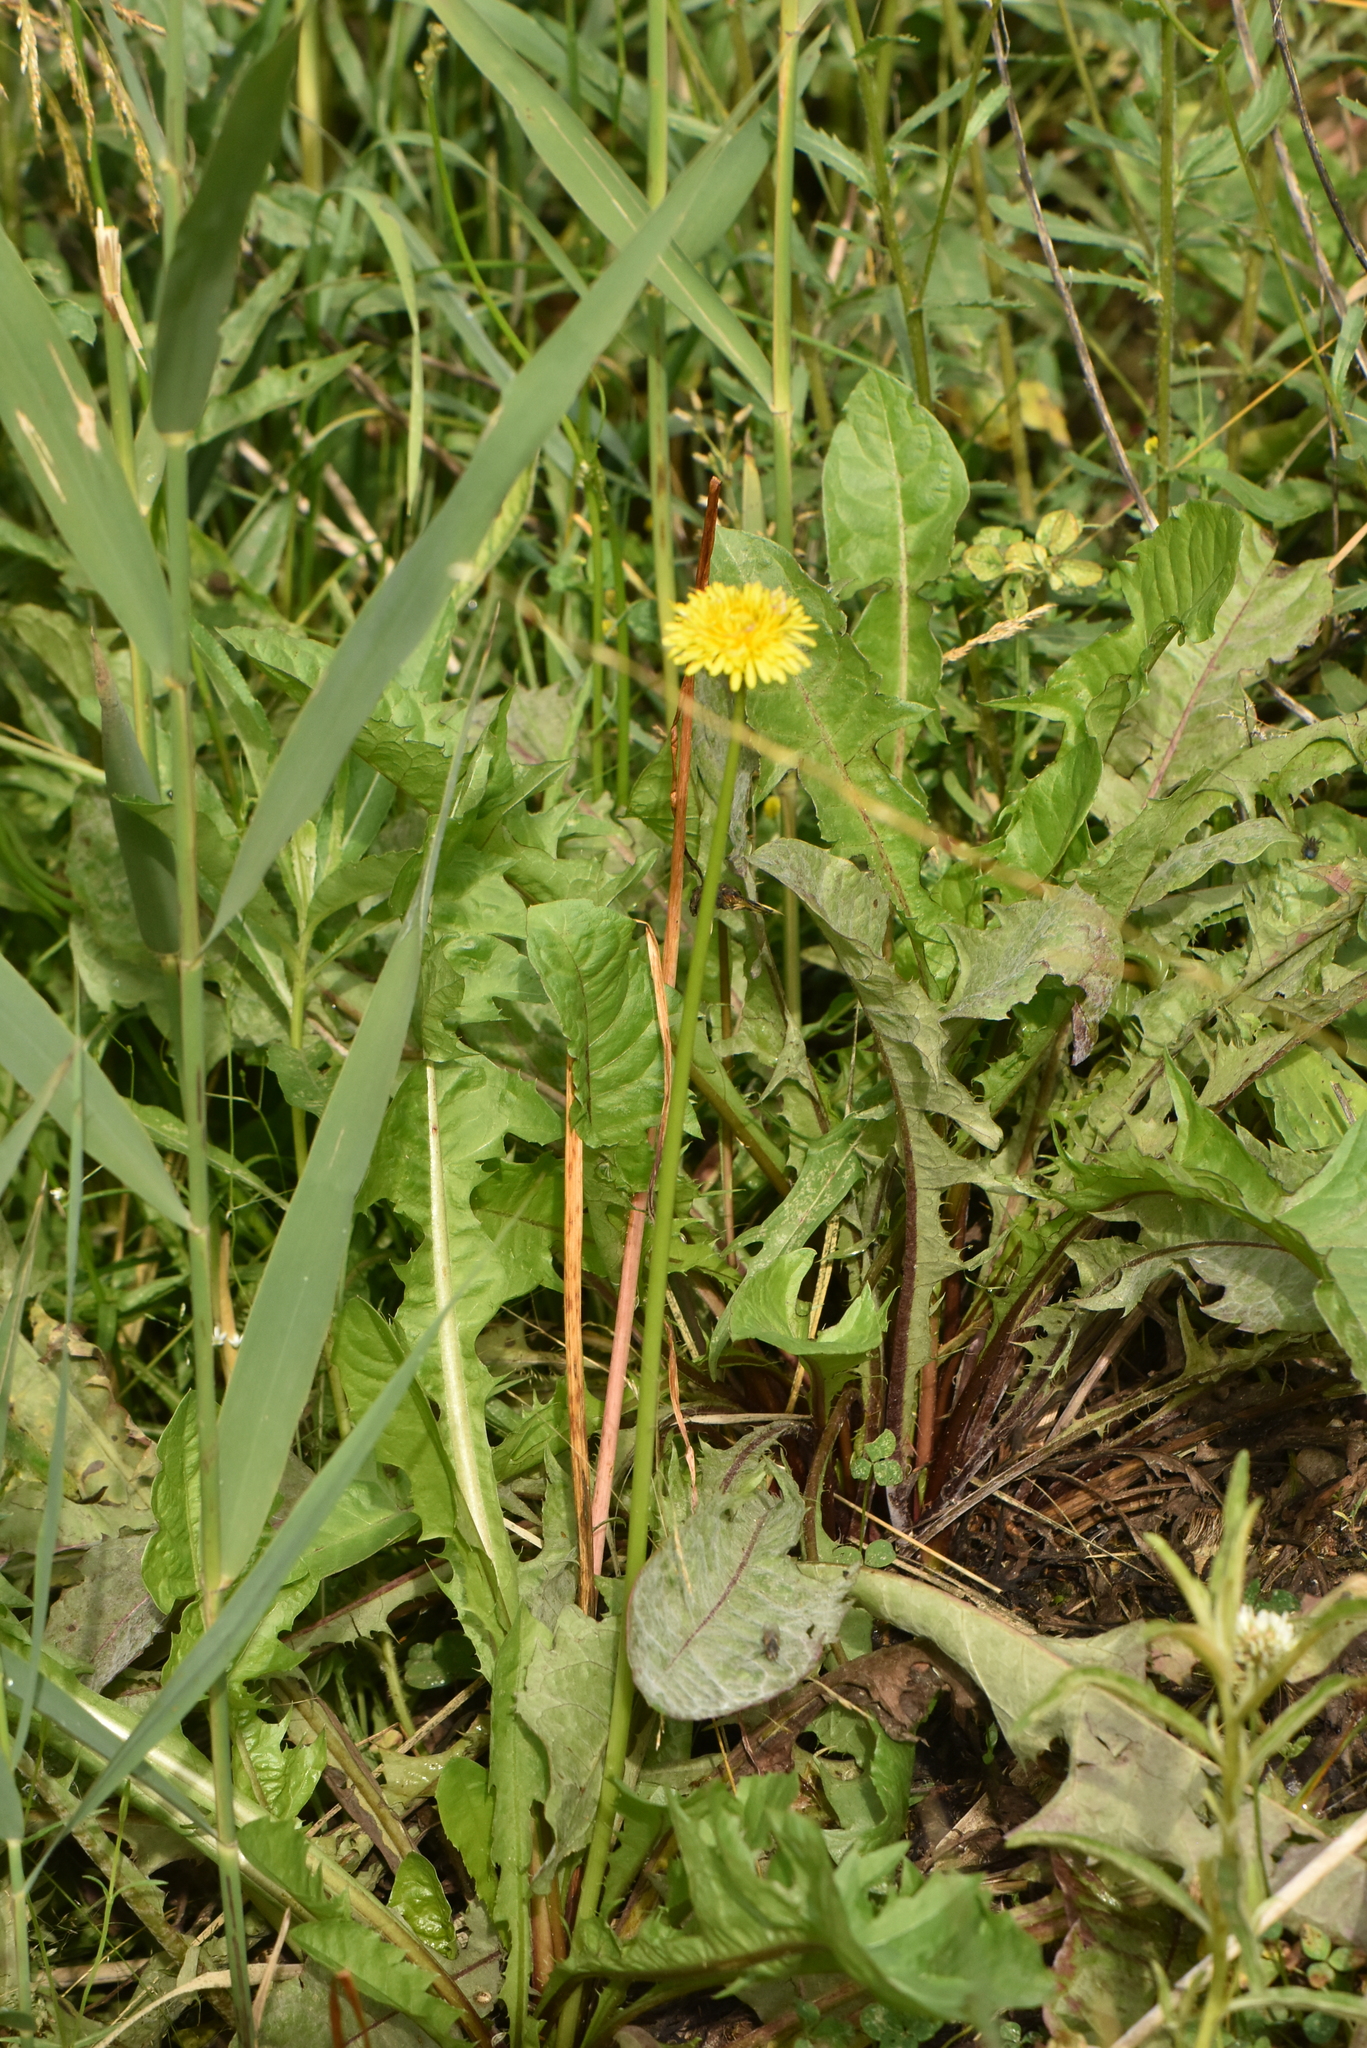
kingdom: Plantae
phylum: Tracheophyta
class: Magnoliopsida
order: Asterales
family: Asteraceae
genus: Taraxacum
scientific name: Taraxacum officinale
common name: Common dandelion
